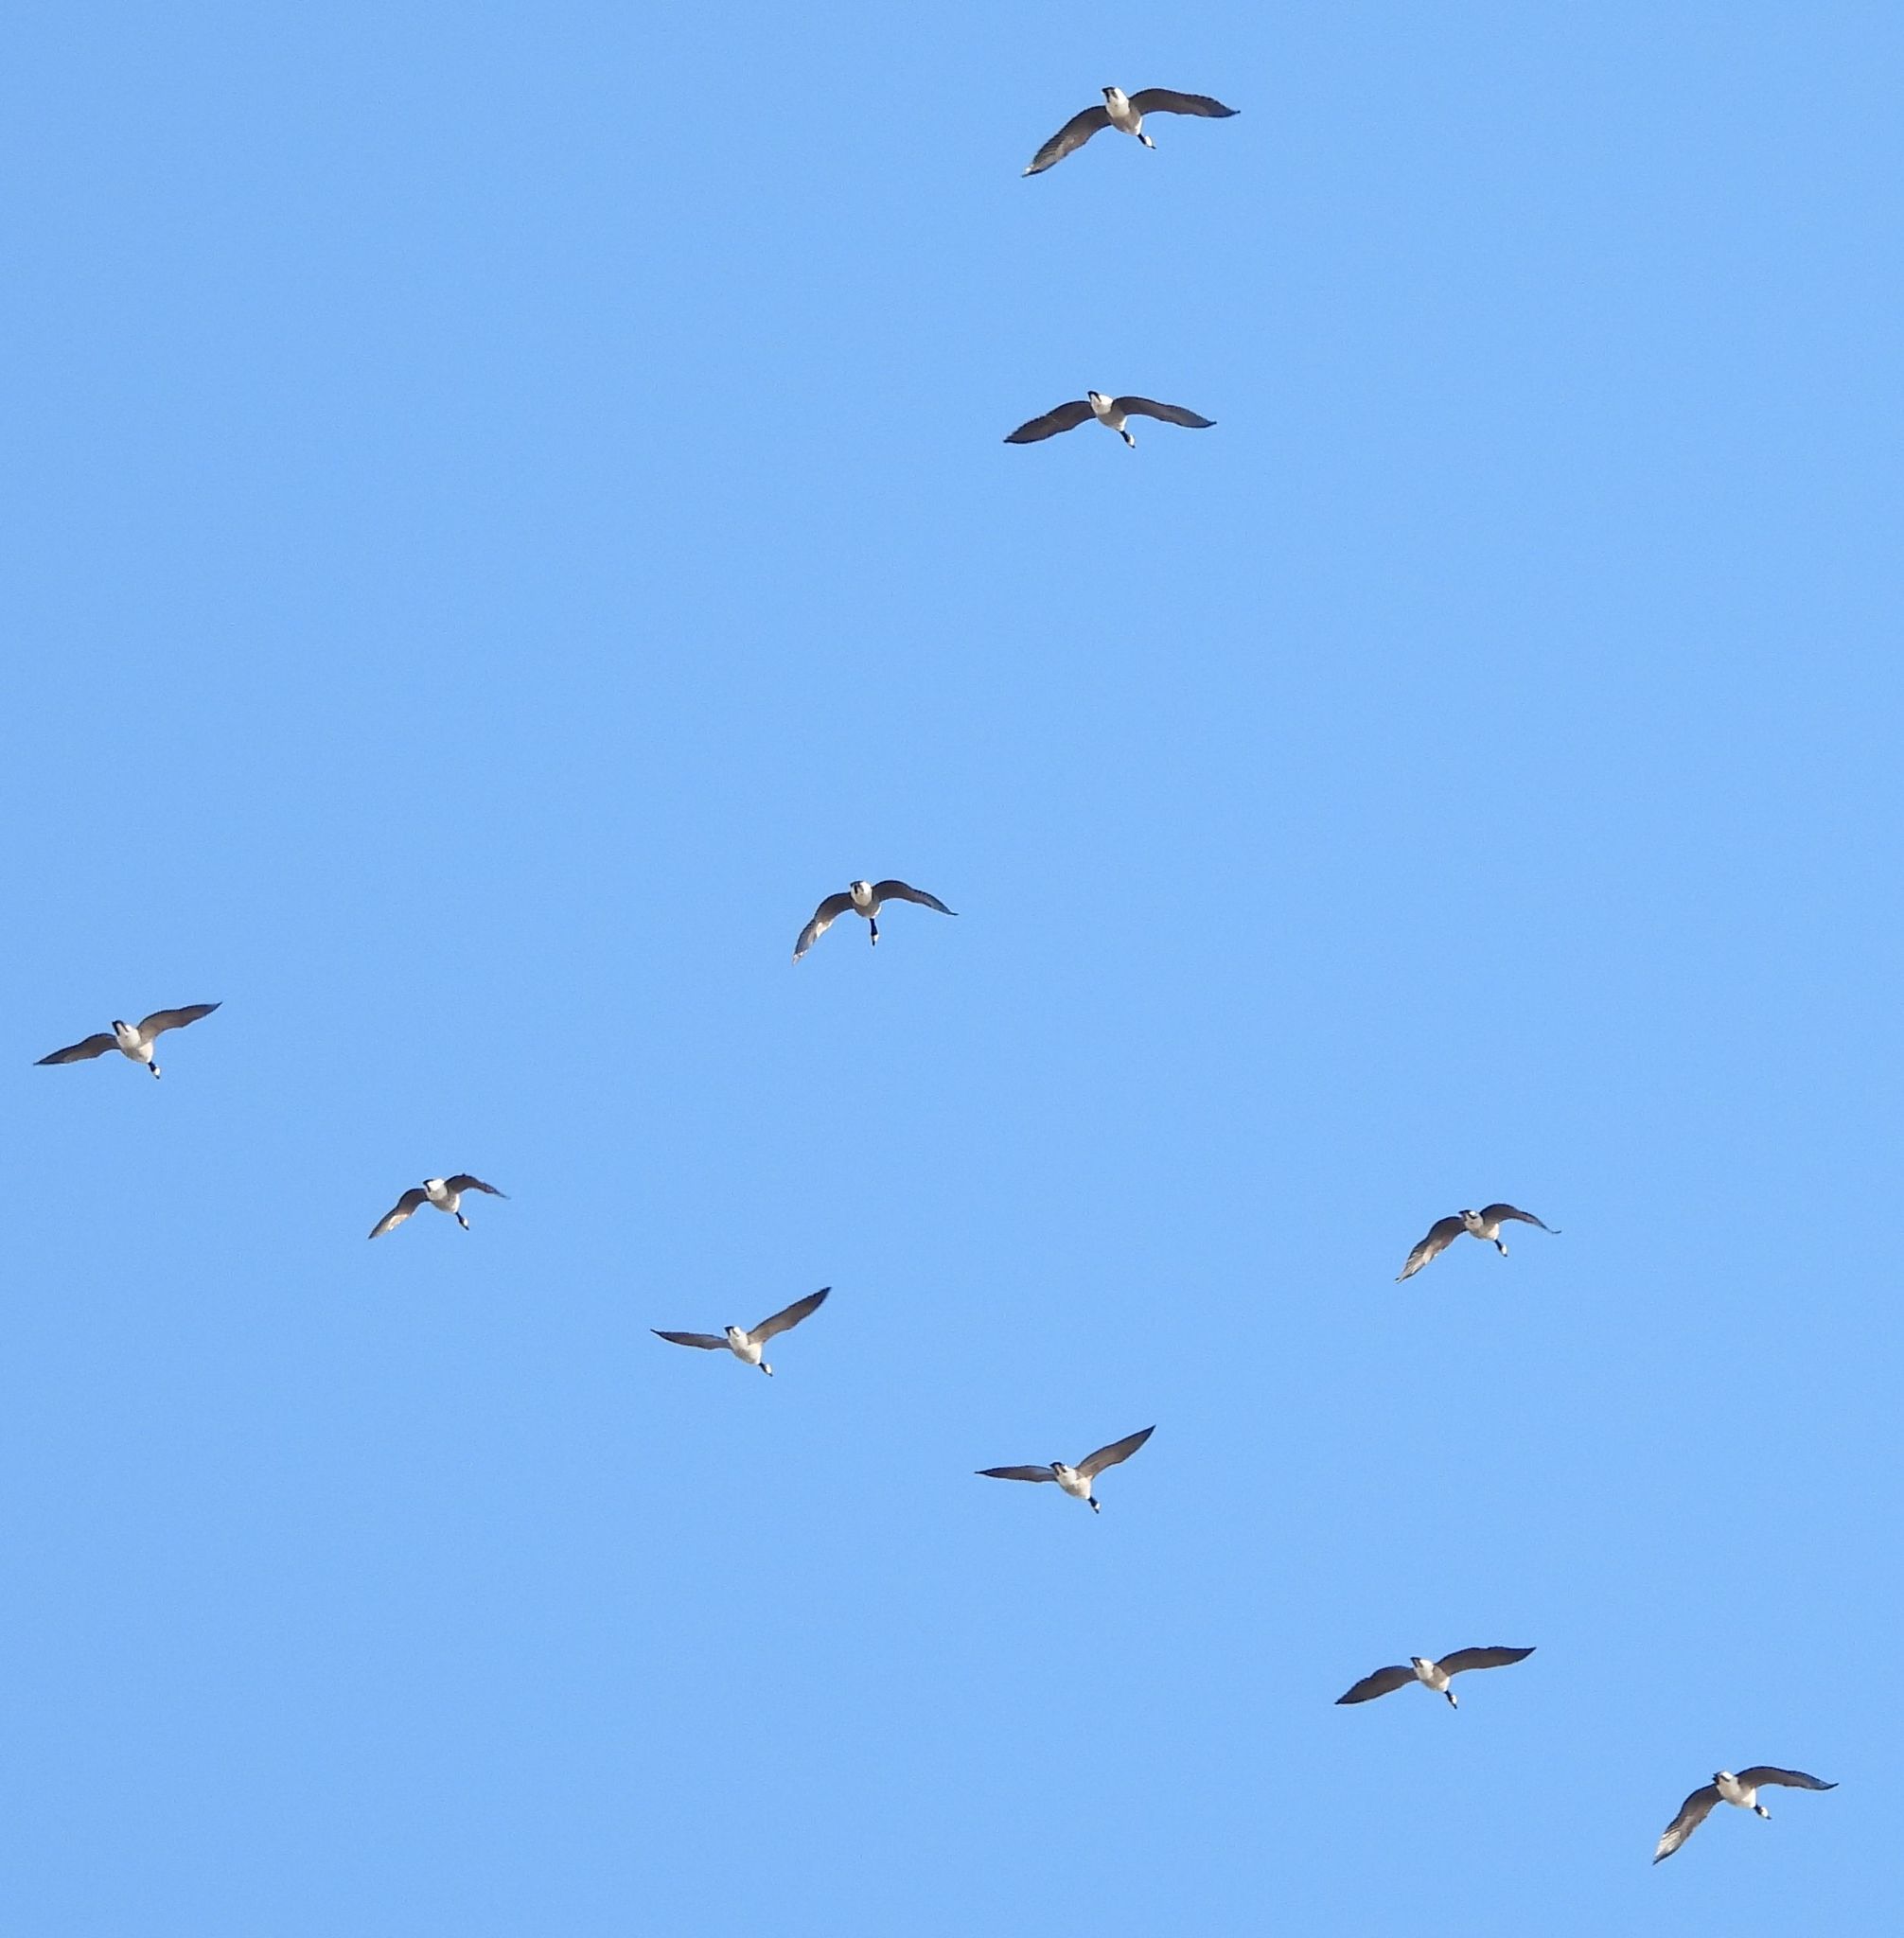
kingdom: Animalia
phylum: Chordata
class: Aves
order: Anseriformes
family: Anatidae
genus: Branta
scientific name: Branta canadensis
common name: Canada goose
